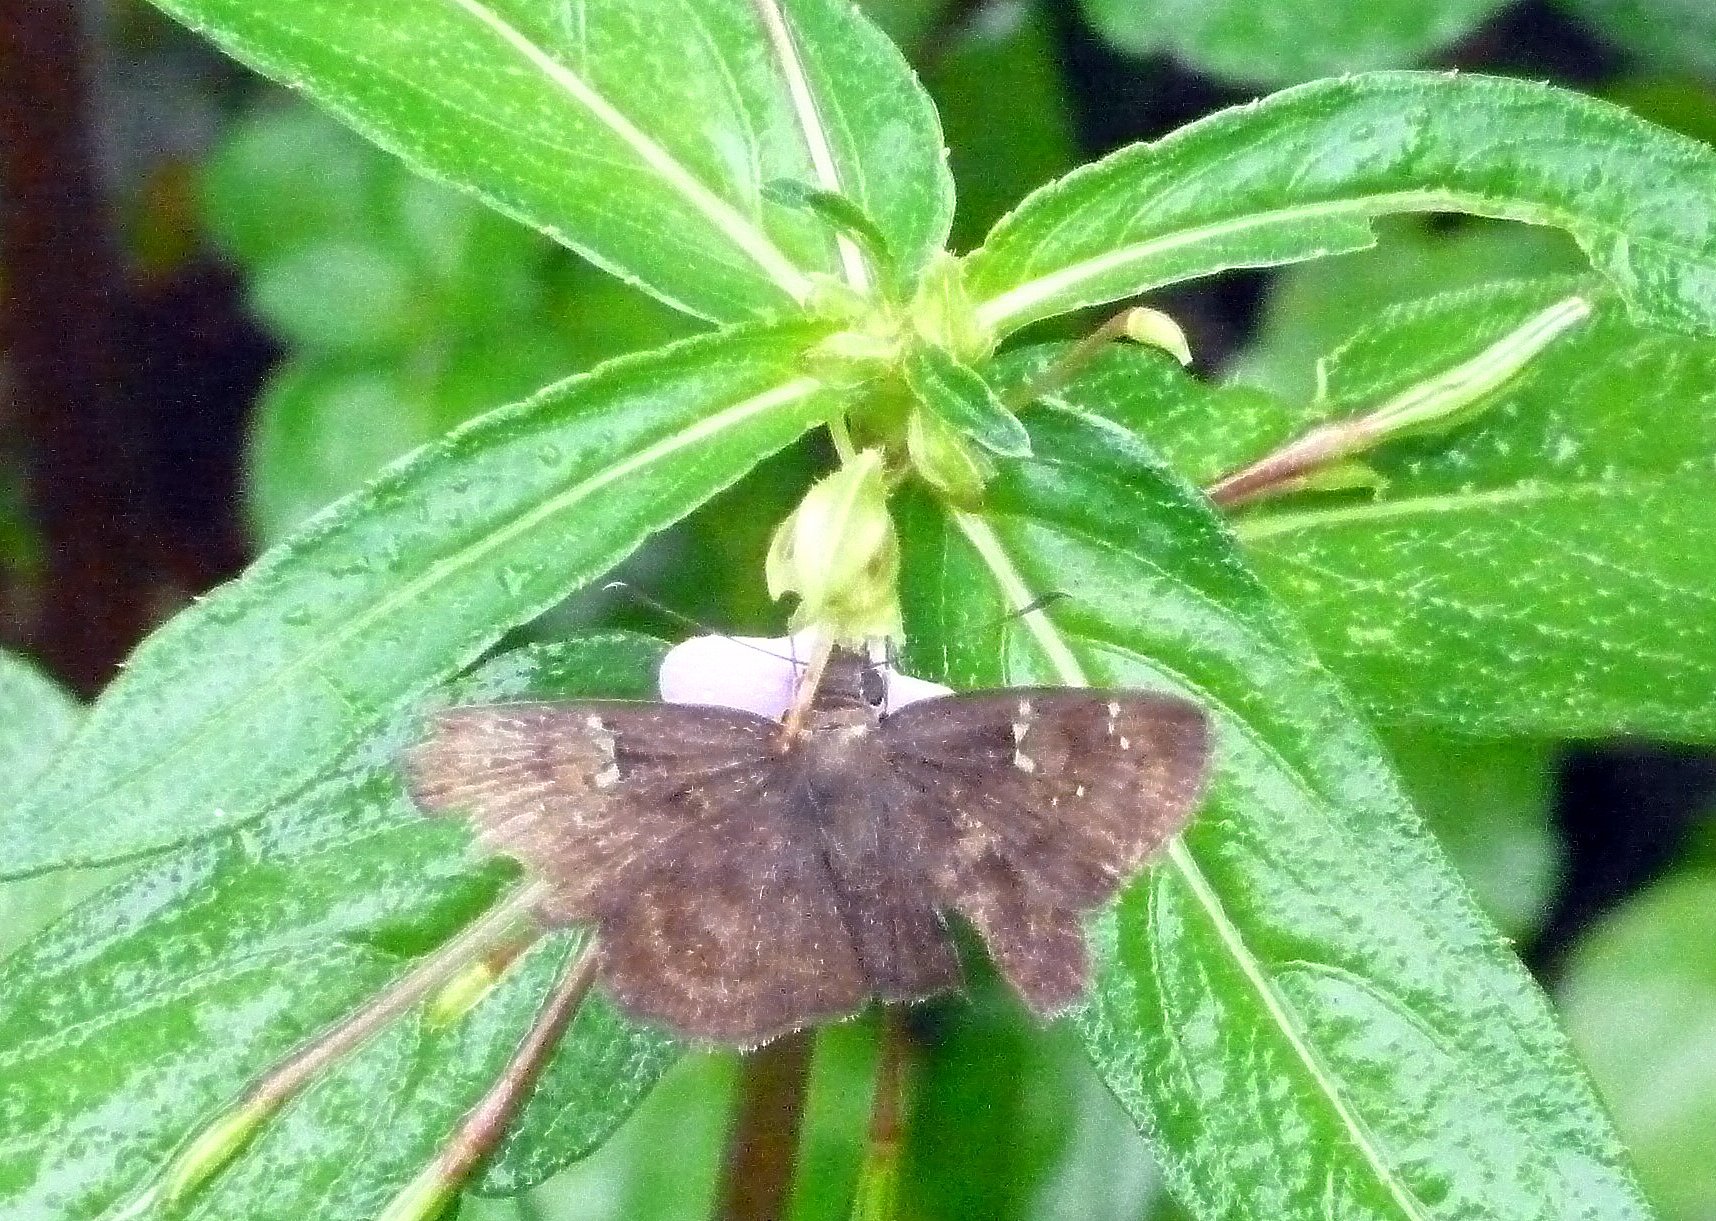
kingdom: Animalia
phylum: Arthropoda
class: Insecta
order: Lepidoptera
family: Hesperiidae
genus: Sarangesa
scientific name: Sarangesa dasahara
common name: Common small flat
